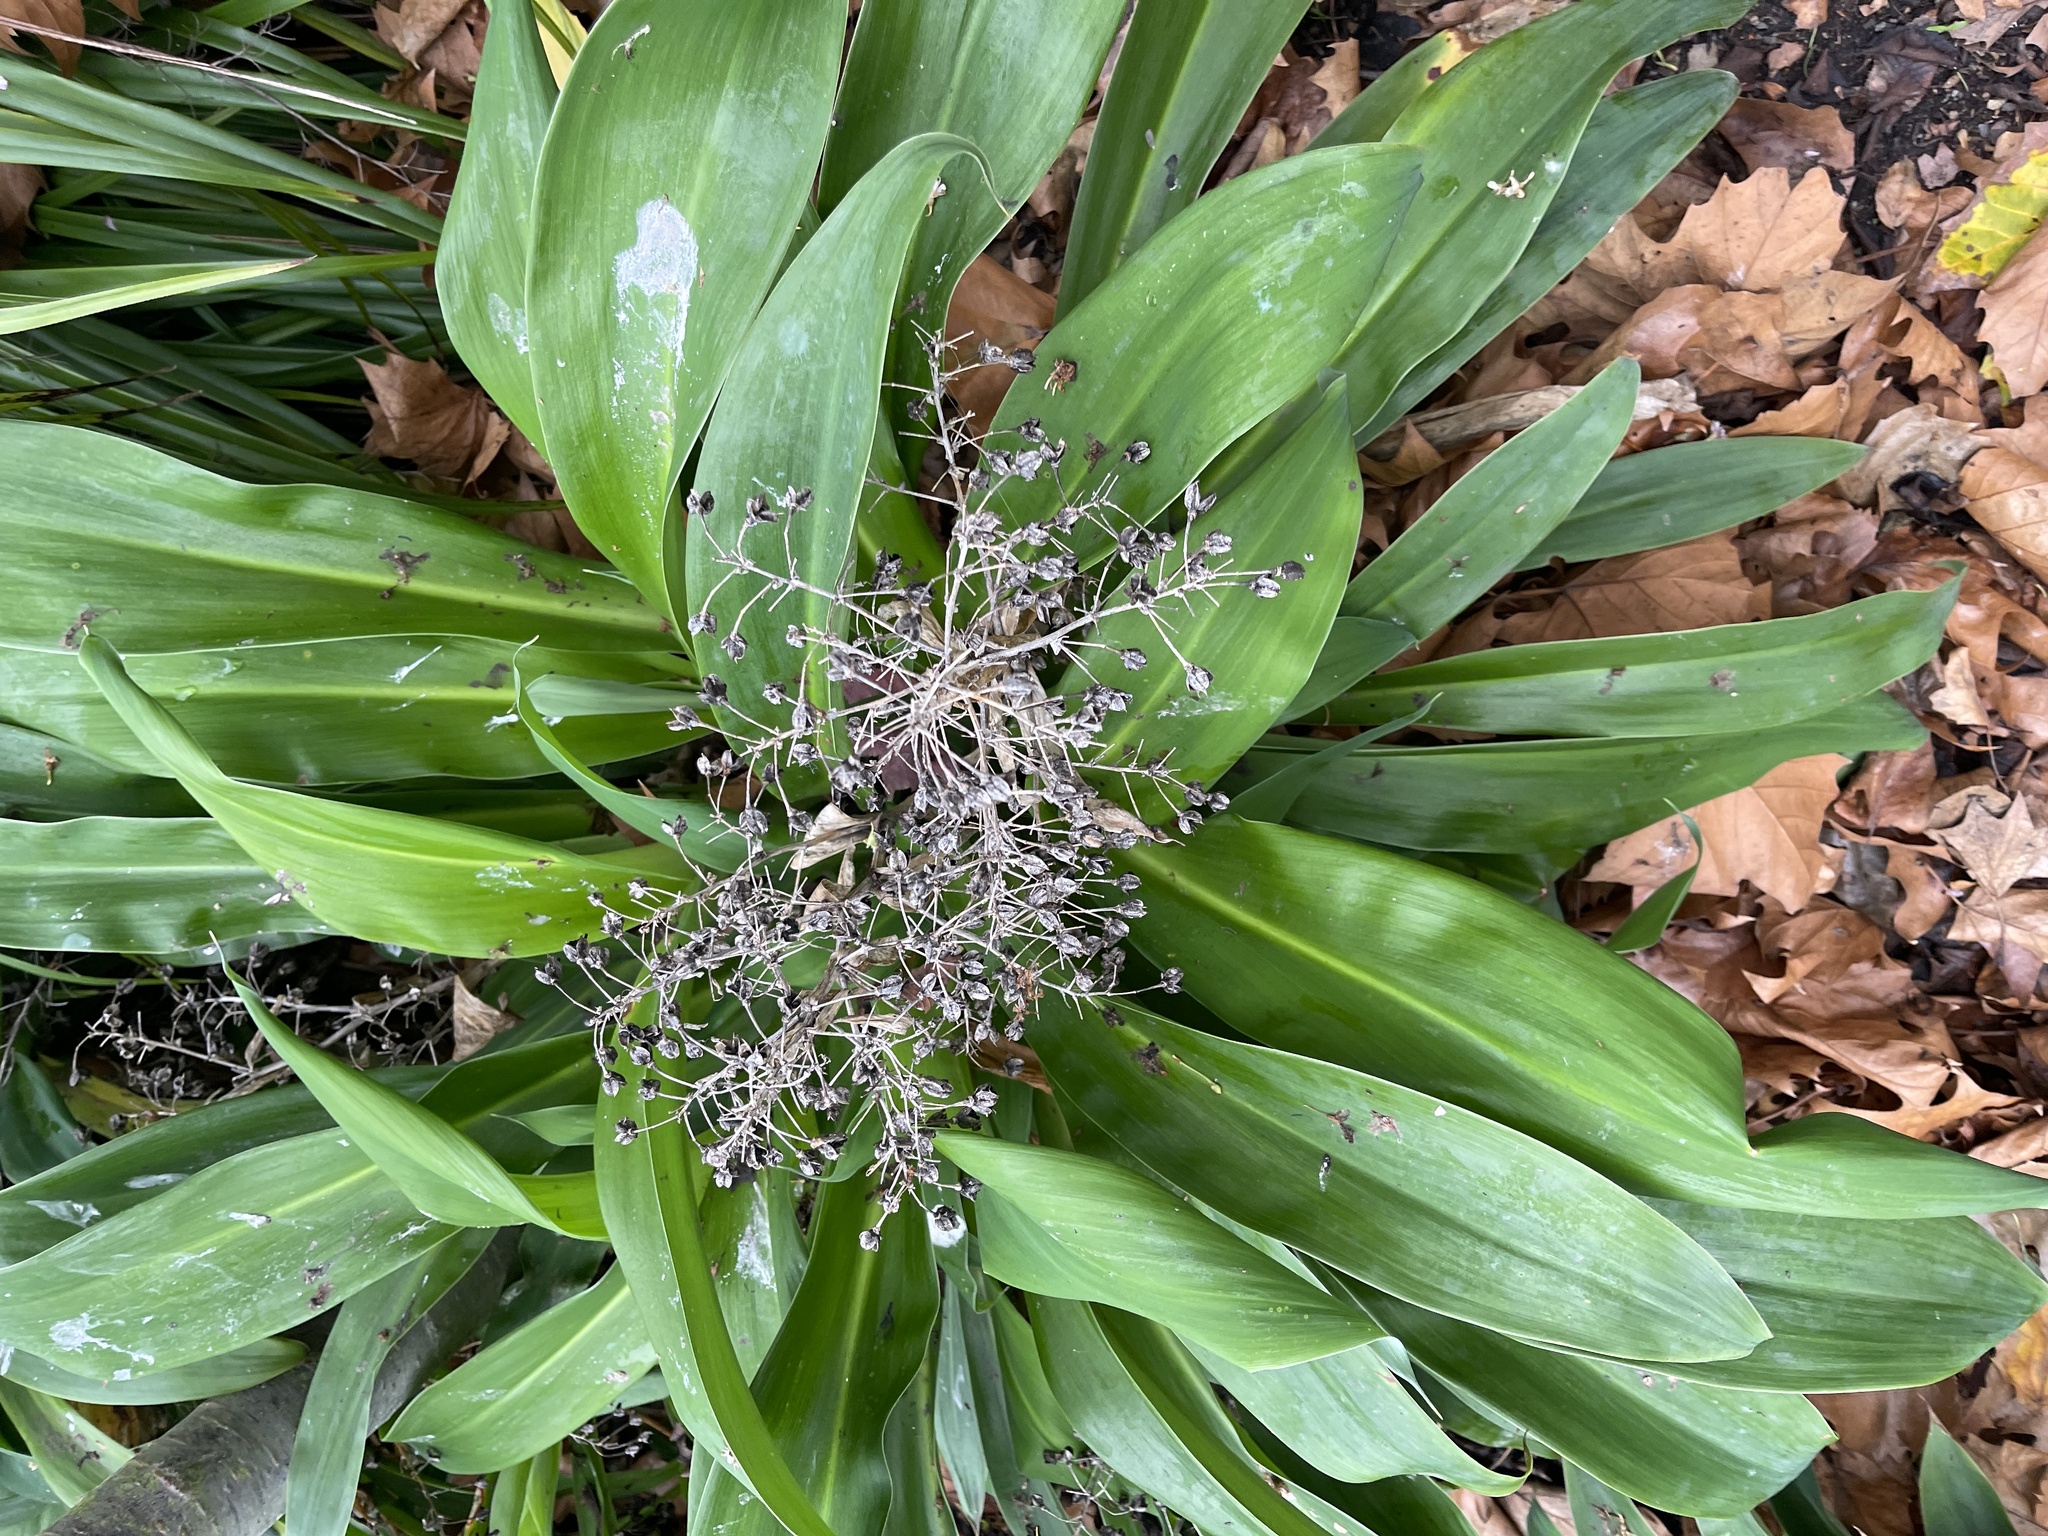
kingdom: Plantae
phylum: Tracheophyta
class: Liliopsida
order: Asparagales
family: Asparagaceae
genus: Arthropodium
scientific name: Arthropodium cirratum
